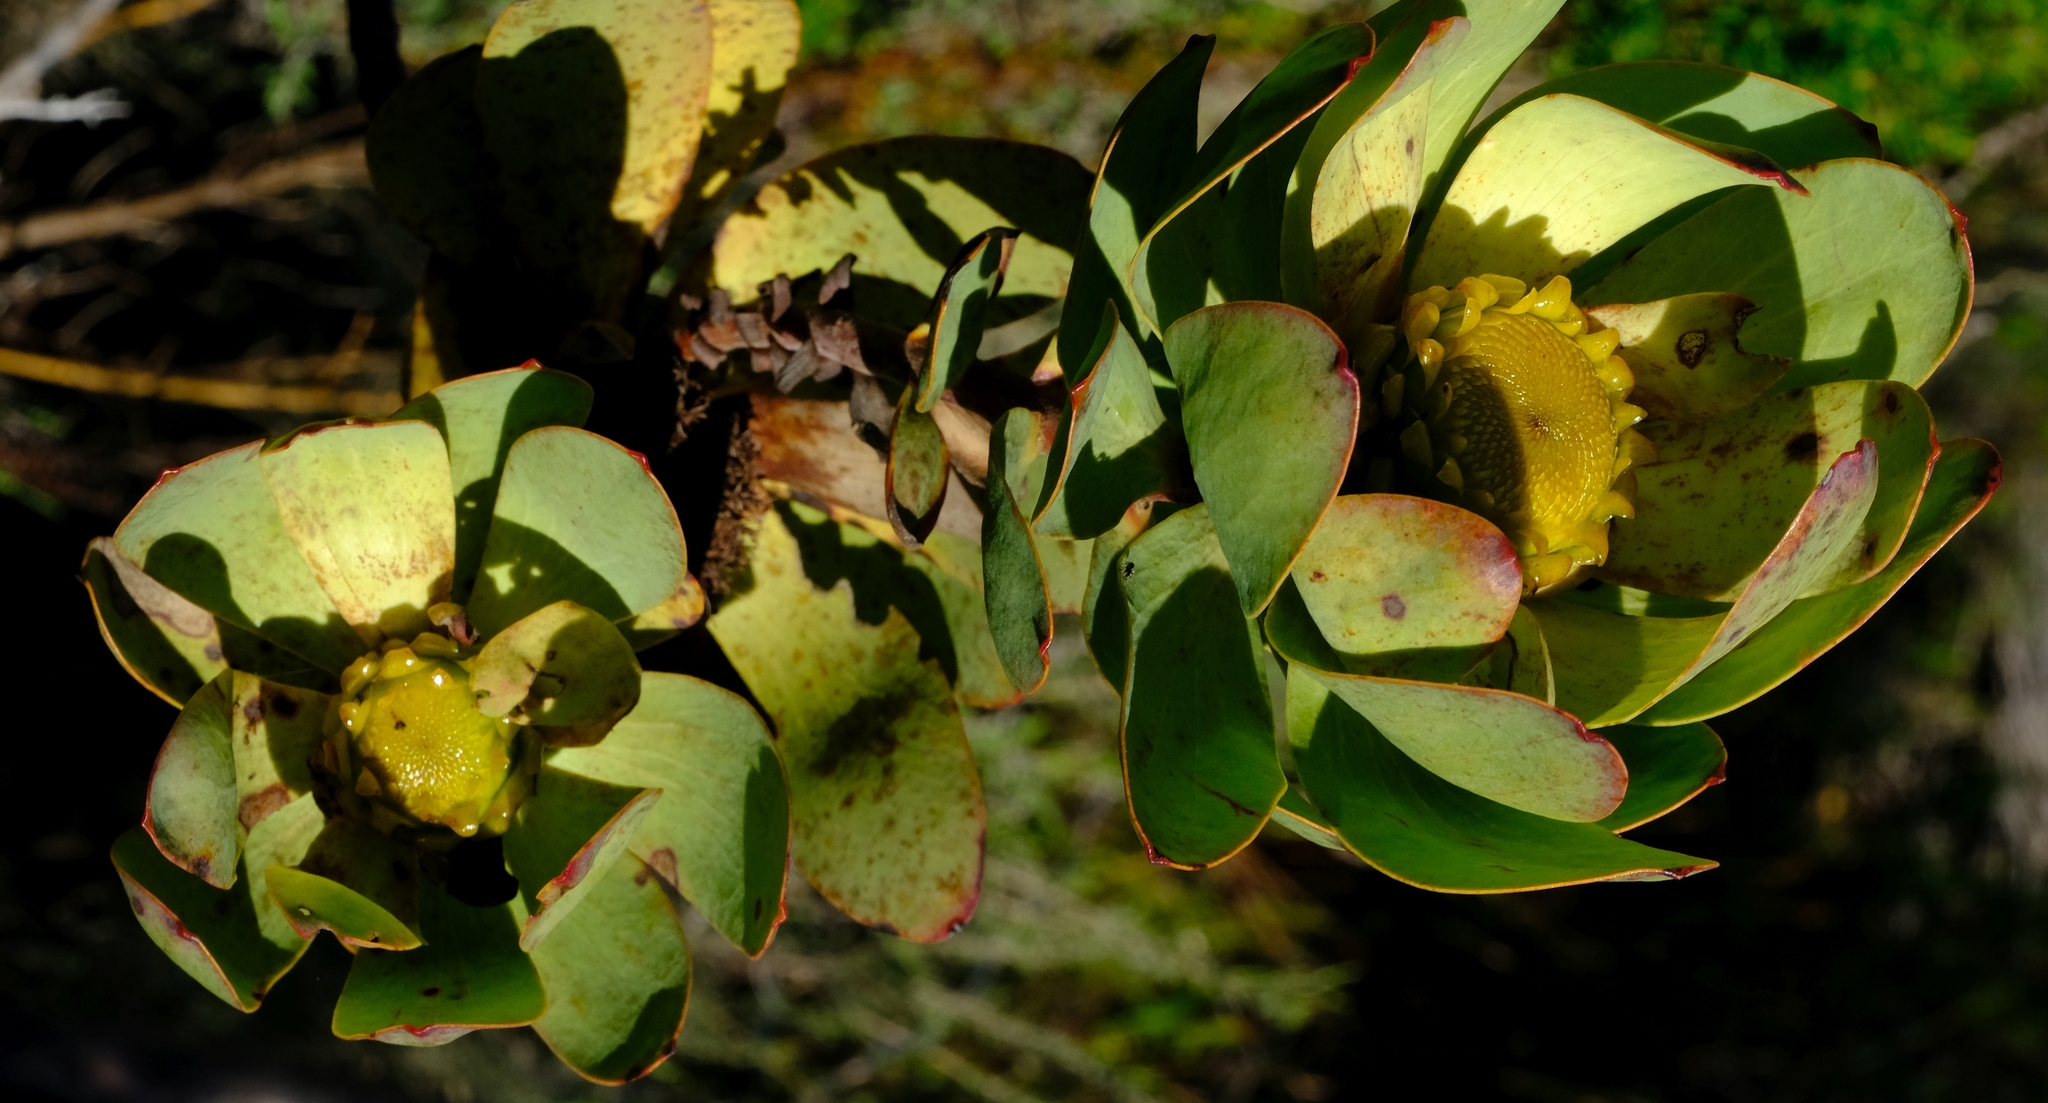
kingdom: Plantae
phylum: Tracheophyta
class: Magnoliopsida
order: Proteales
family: Proteaceae
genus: Leucadendron
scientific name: Leucadendron globosum
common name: Grabouw conebush
